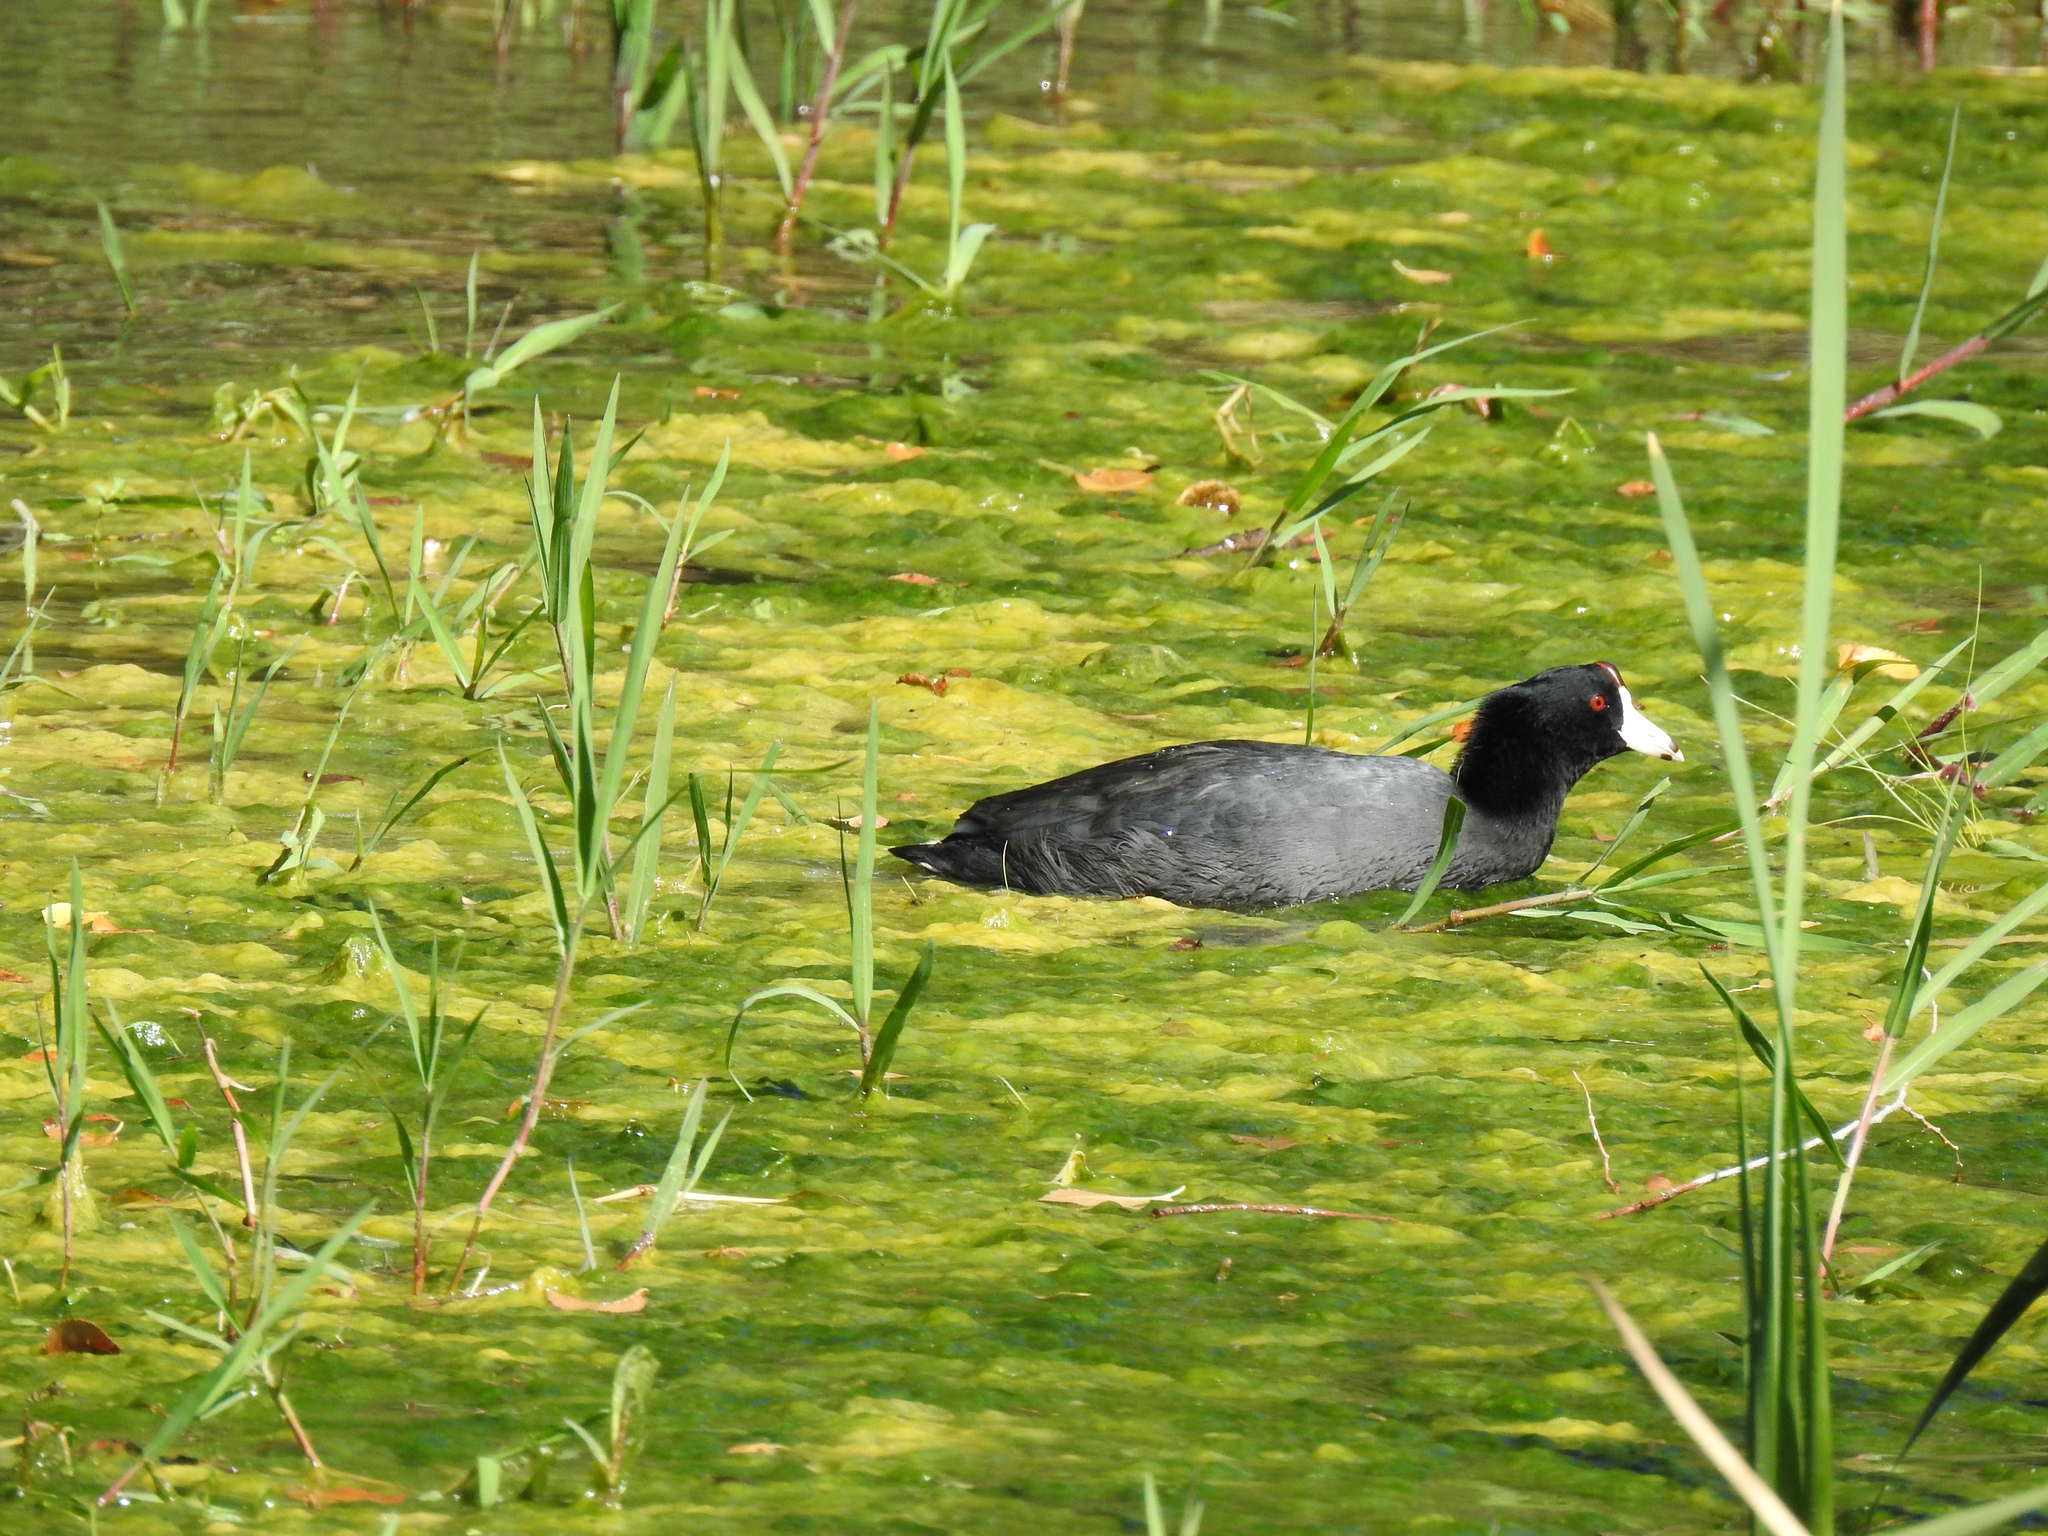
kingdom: Animalia
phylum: Chordata
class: Aves
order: Gruiformes
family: Rallidae
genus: Fulica
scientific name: Fulica americana
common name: American coot
